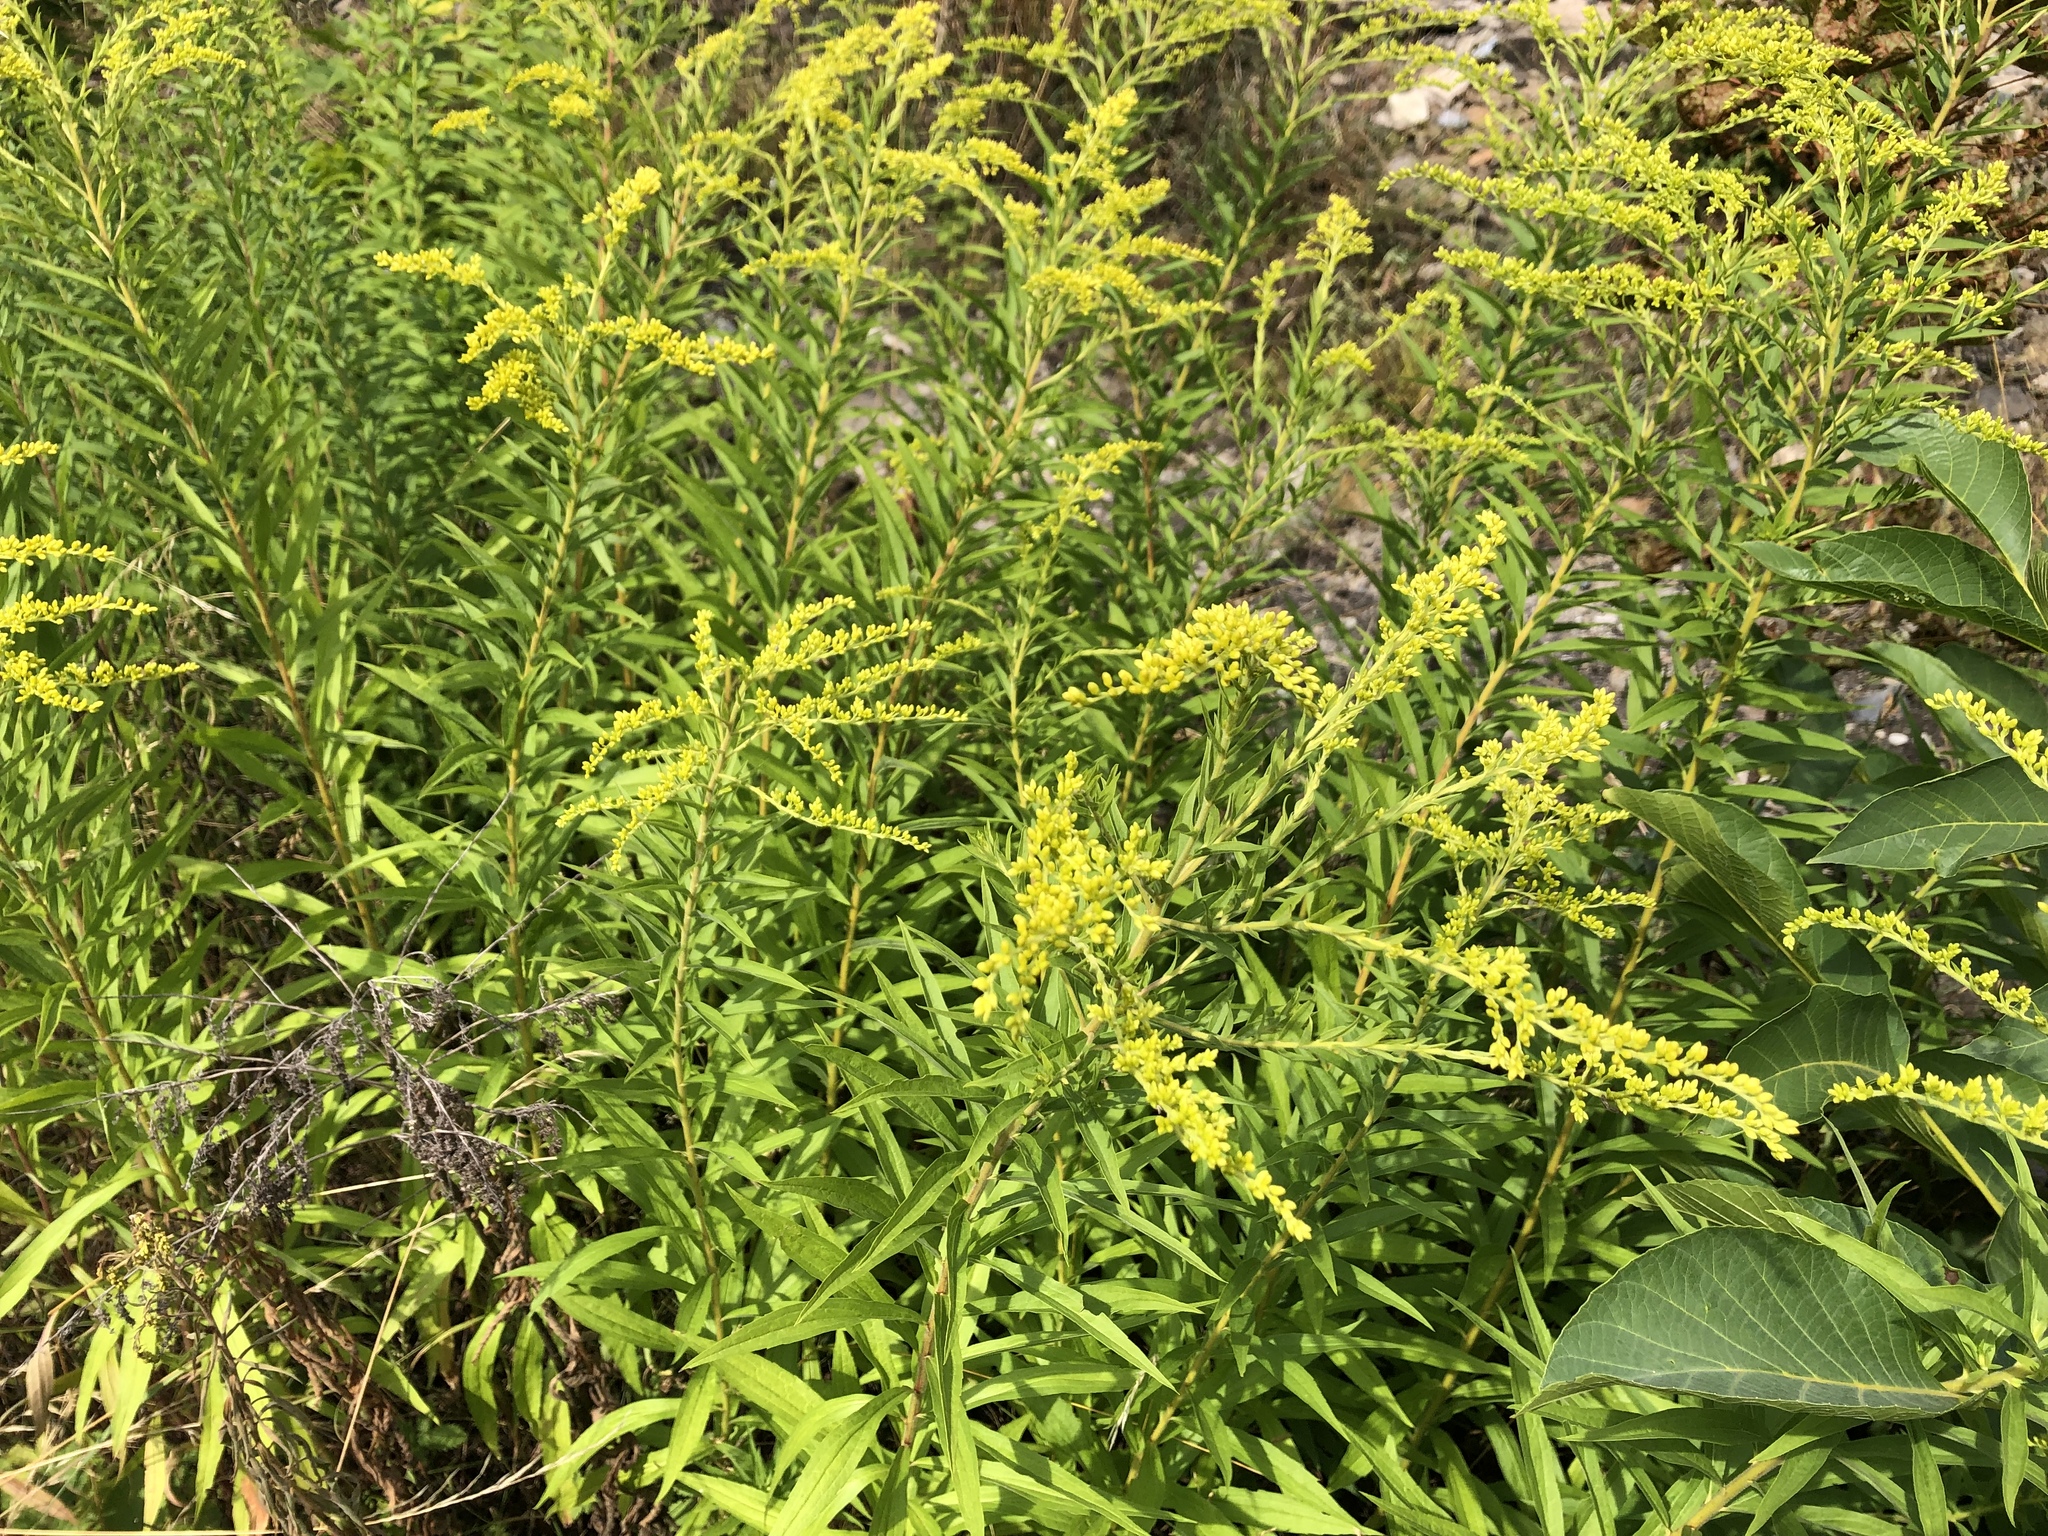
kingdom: Plantae
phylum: Tracheophyta
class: Magnoliopsida
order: Asterales
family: Asteraceae
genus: Solidago
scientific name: Solidago canadensis
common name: Canada goldenrod
